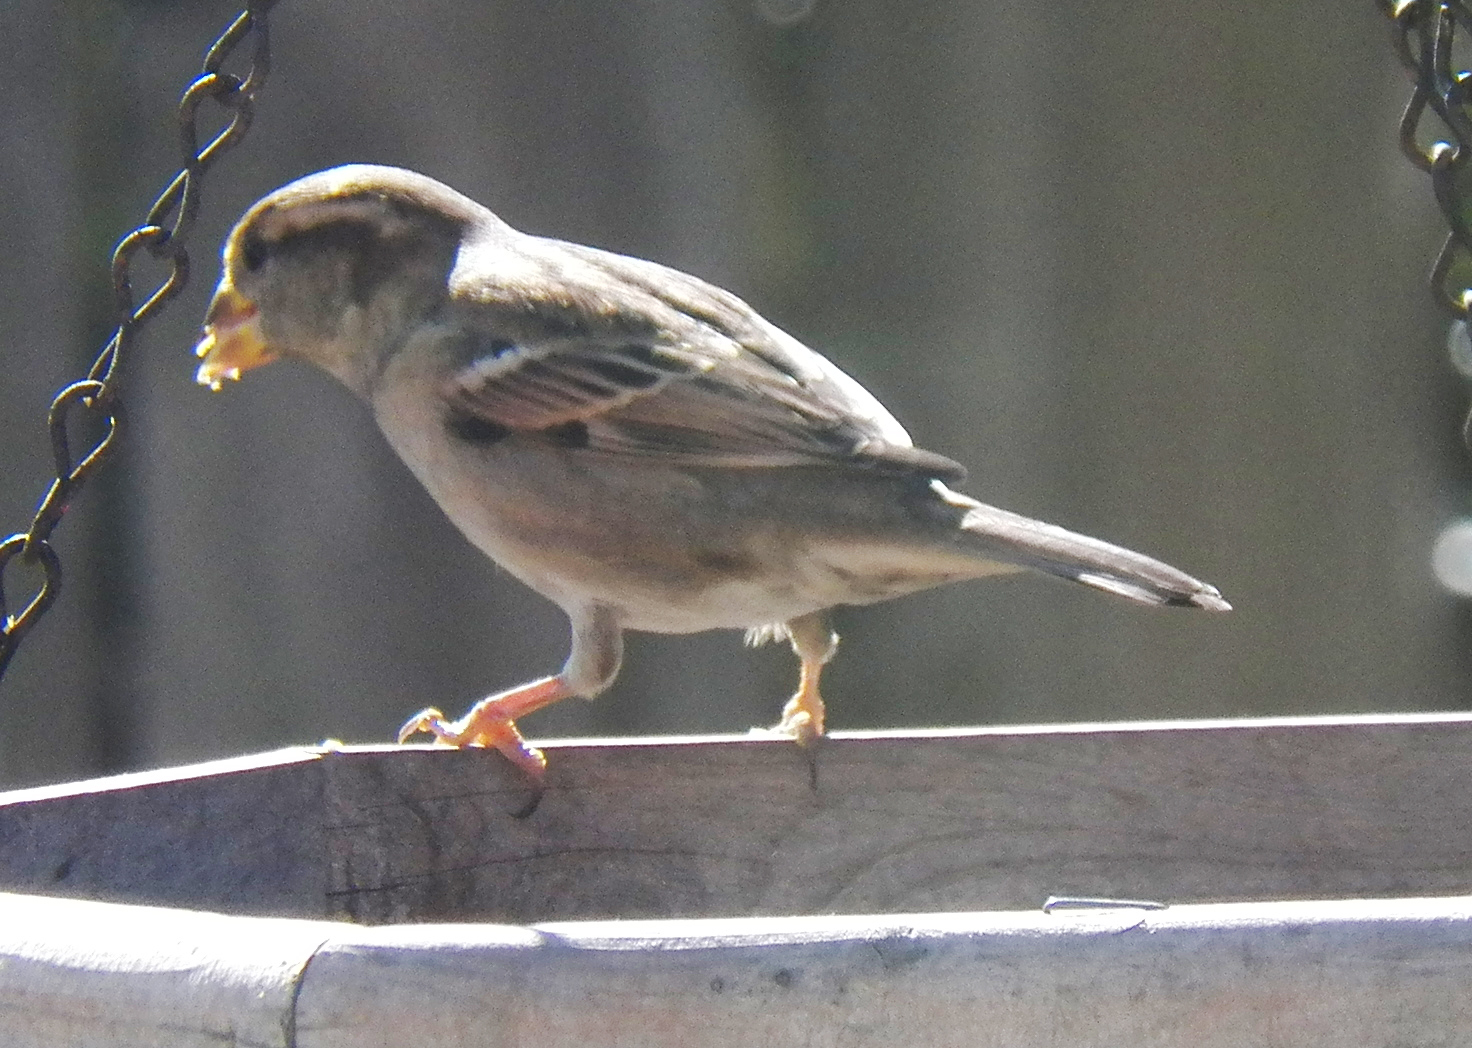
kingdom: Animalia
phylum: Chordata
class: Aves
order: Passeriformes
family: Passeridae
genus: Passer
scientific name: Passer domesticus
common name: House sparrow
